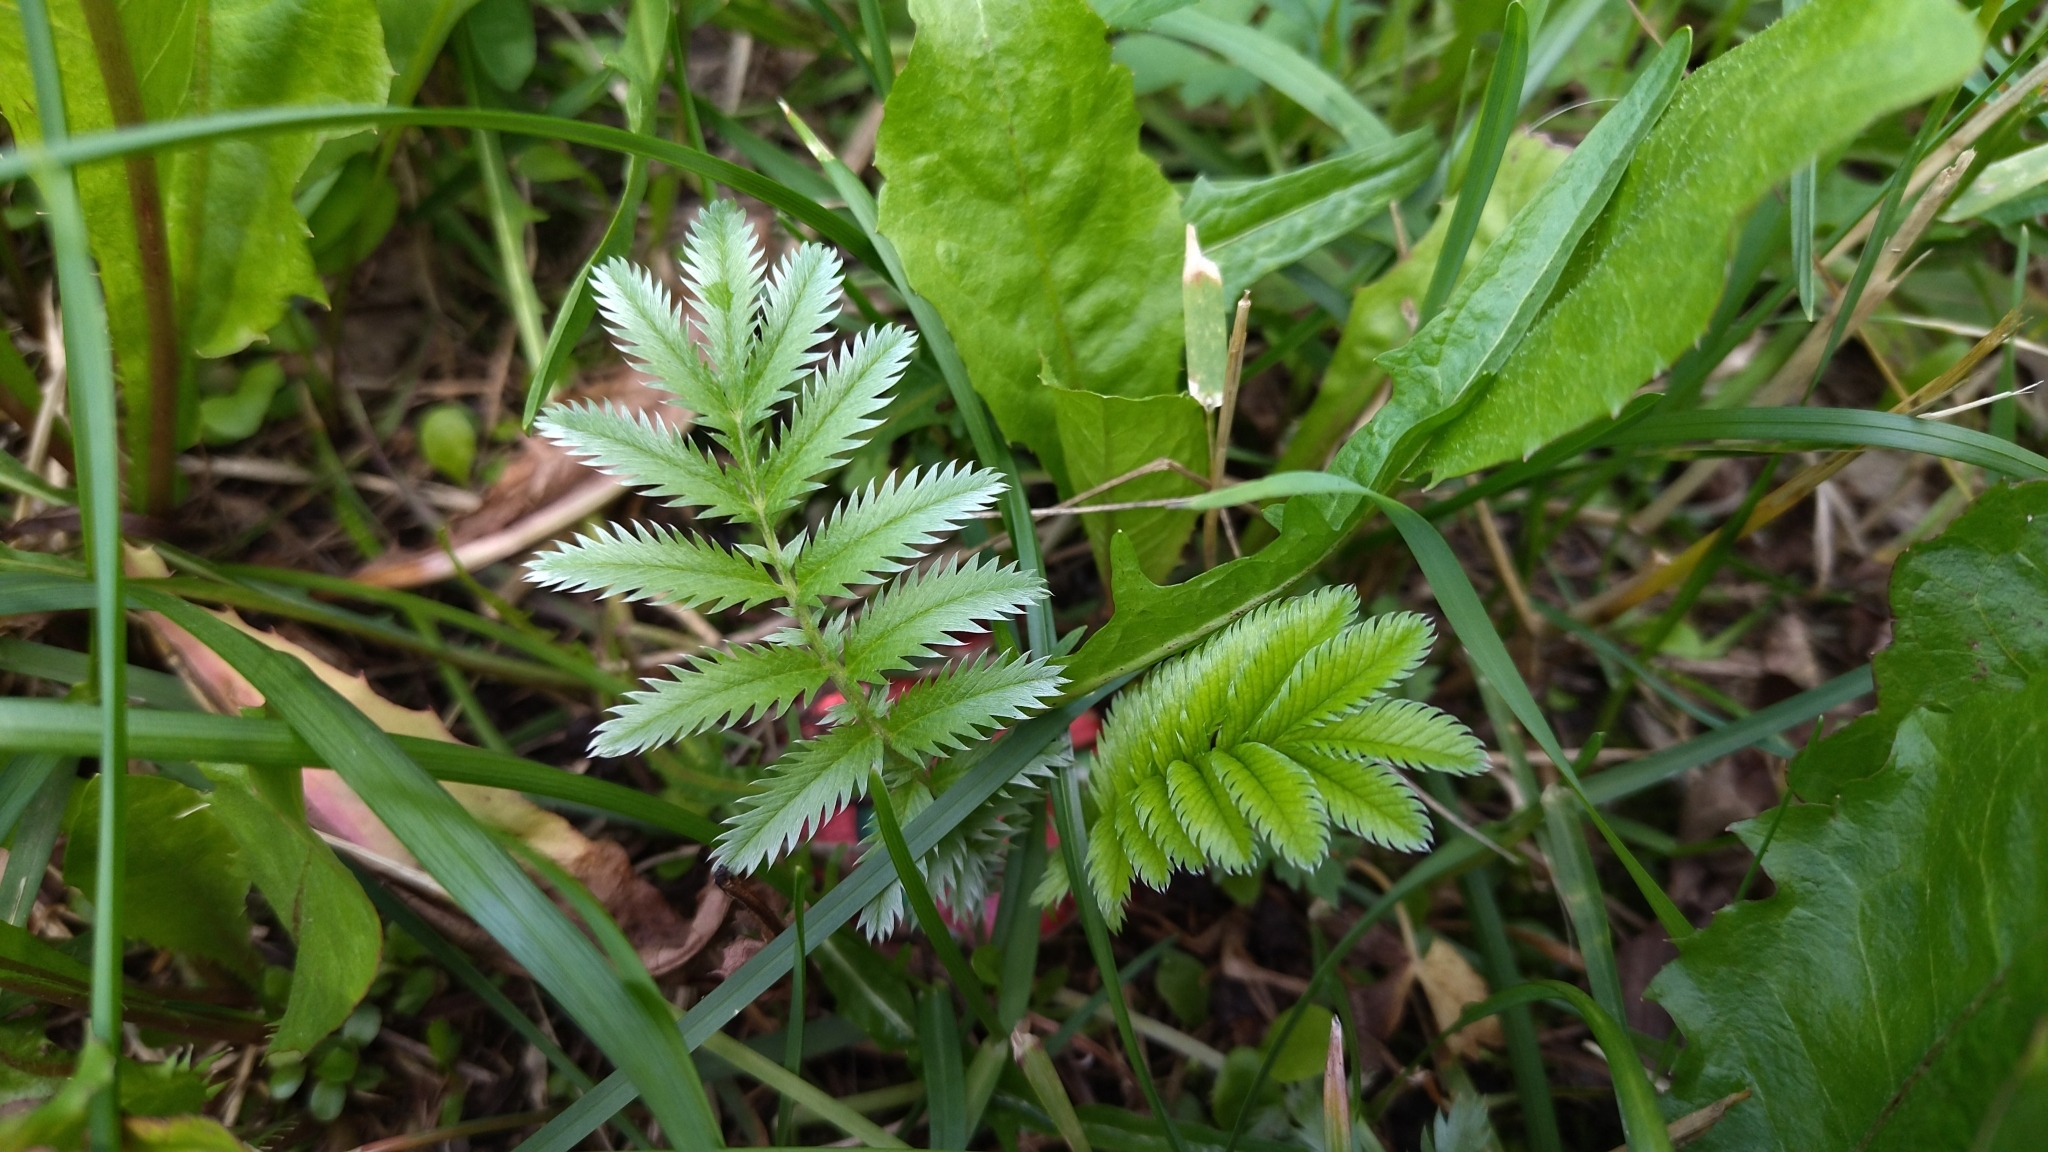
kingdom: Plantae
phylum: Tracheophyta
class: Magnoliopsida
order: Rosales
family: Rosaceae
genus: Argentina
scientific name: Argentina anserina
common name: Common silverweed
